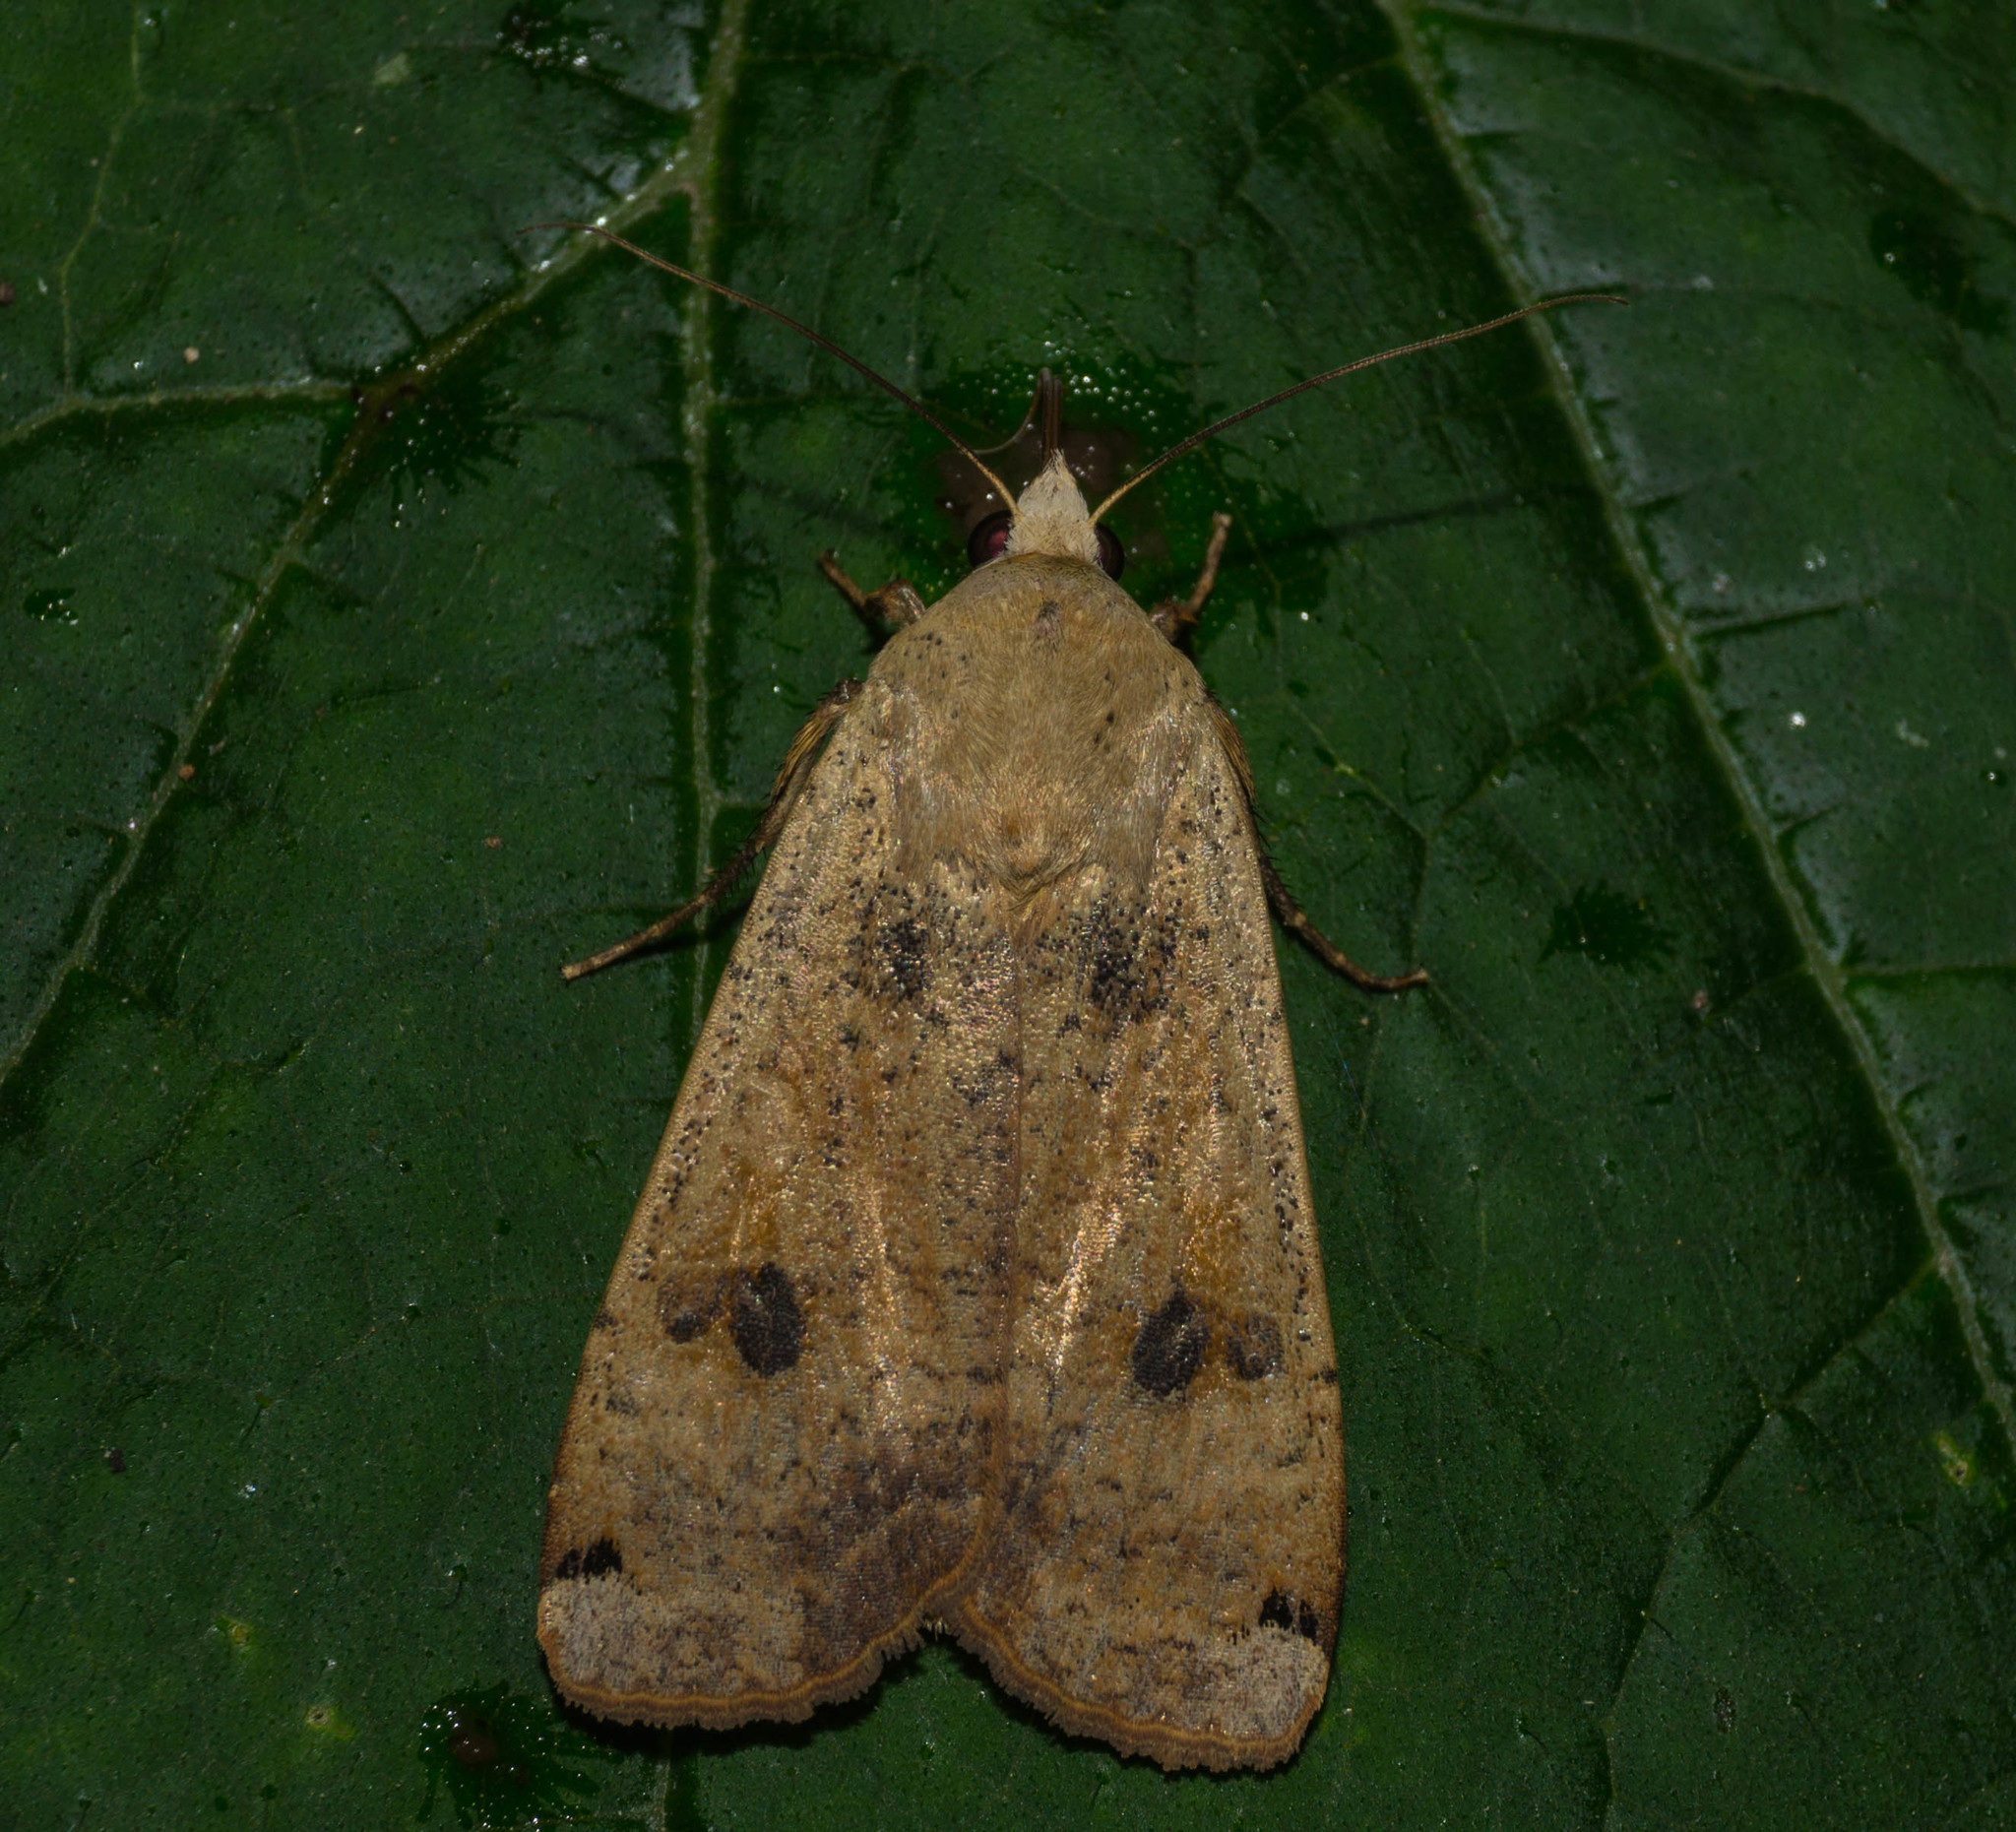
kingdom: Animalia
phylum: Arthropoda
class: Insecta
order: Lepidoptera
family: Noctuidae
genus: Noctua
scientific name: Noctua pronuba
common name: Large yellow underwing
